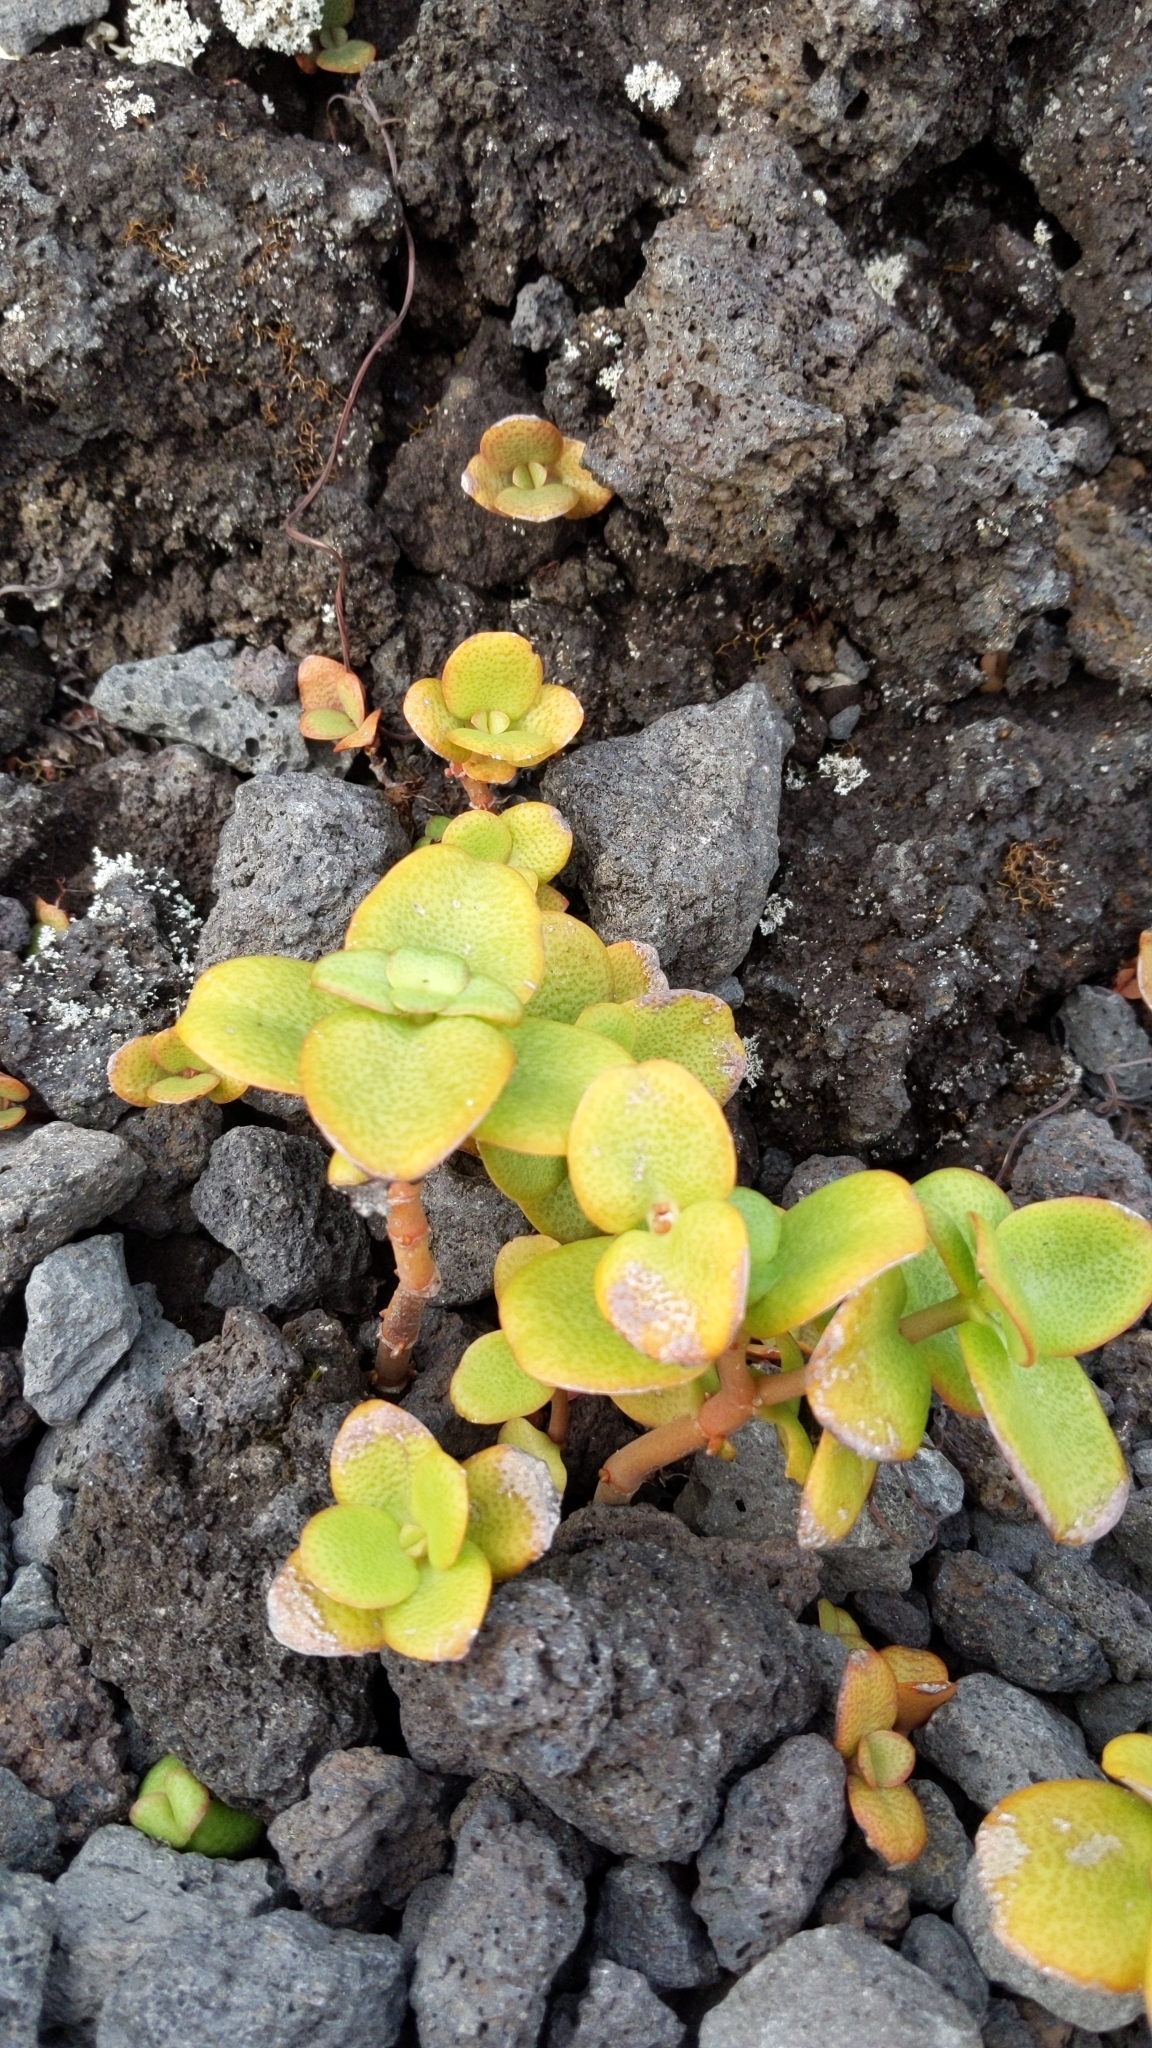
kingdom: Plantae
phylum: Tracheophyta
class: Magnoliopsida
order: Saxifragales
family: Crassulaceae
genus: Crassula
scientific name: Crassula multicava
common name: Cape province pygmyweed
